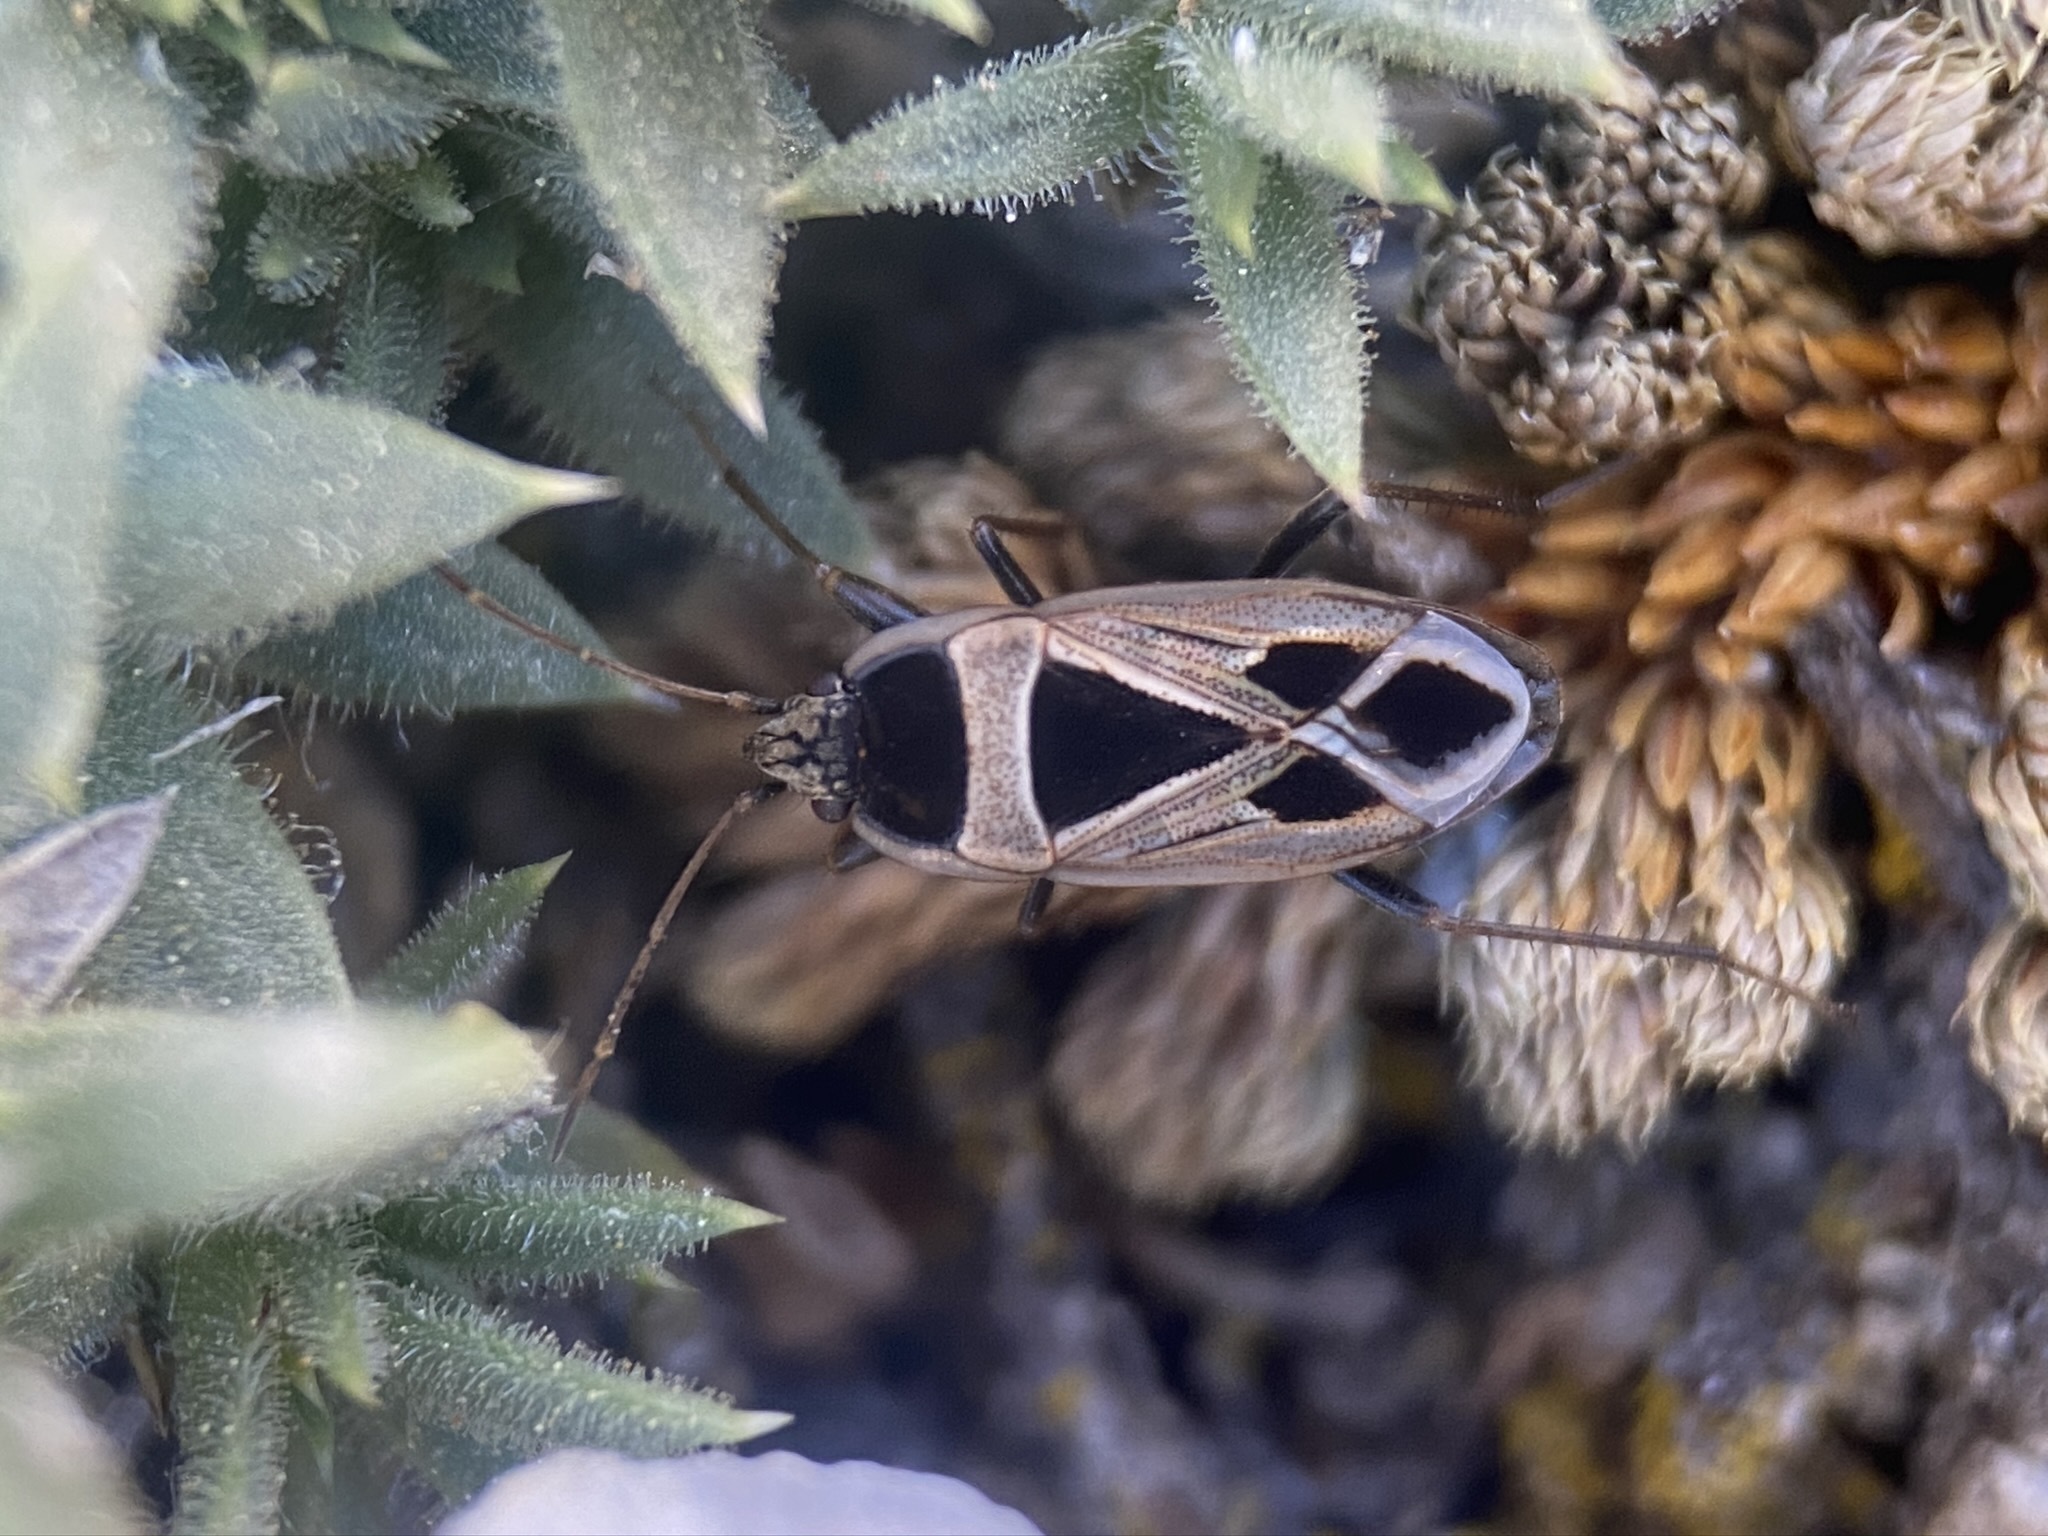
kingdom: Animalia
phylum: Arthropoda
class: Insecta
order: Hemiptera
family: Rhyparochromidae
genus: Xanthochilus
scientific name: Xanthochilus saturnius
